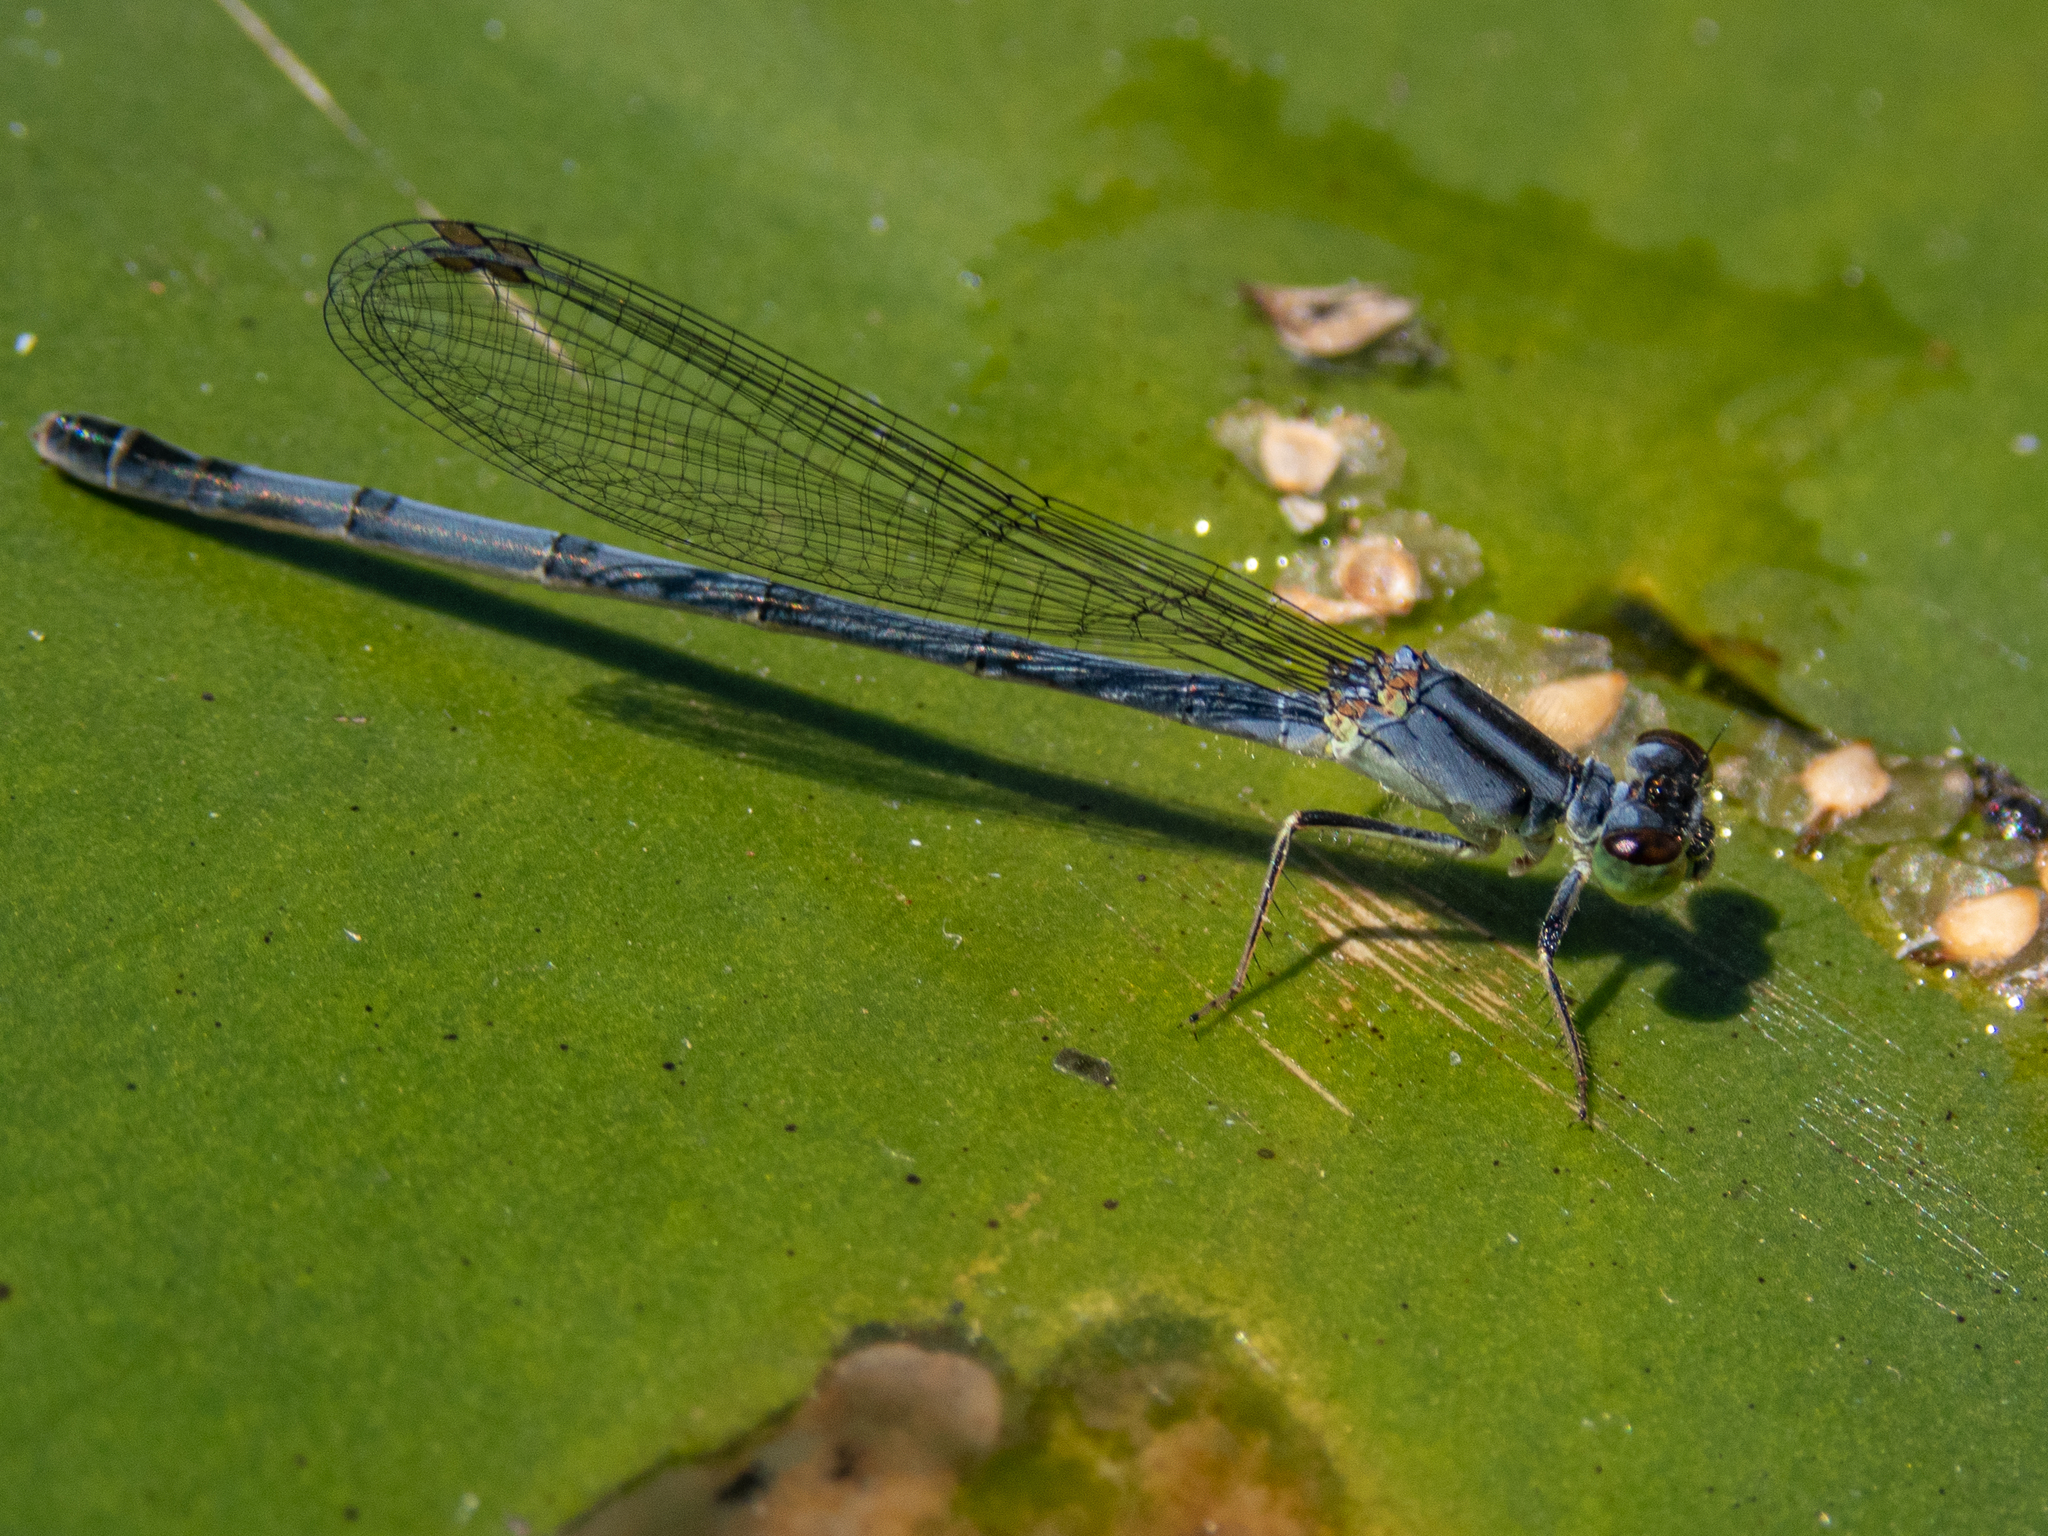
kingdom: Animalia
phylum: Arthropoda
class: Insecta
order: Odonata
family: Coenagrionidae
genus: Ischnura
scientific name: Ischnura verticalis
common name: Eastern forktail
